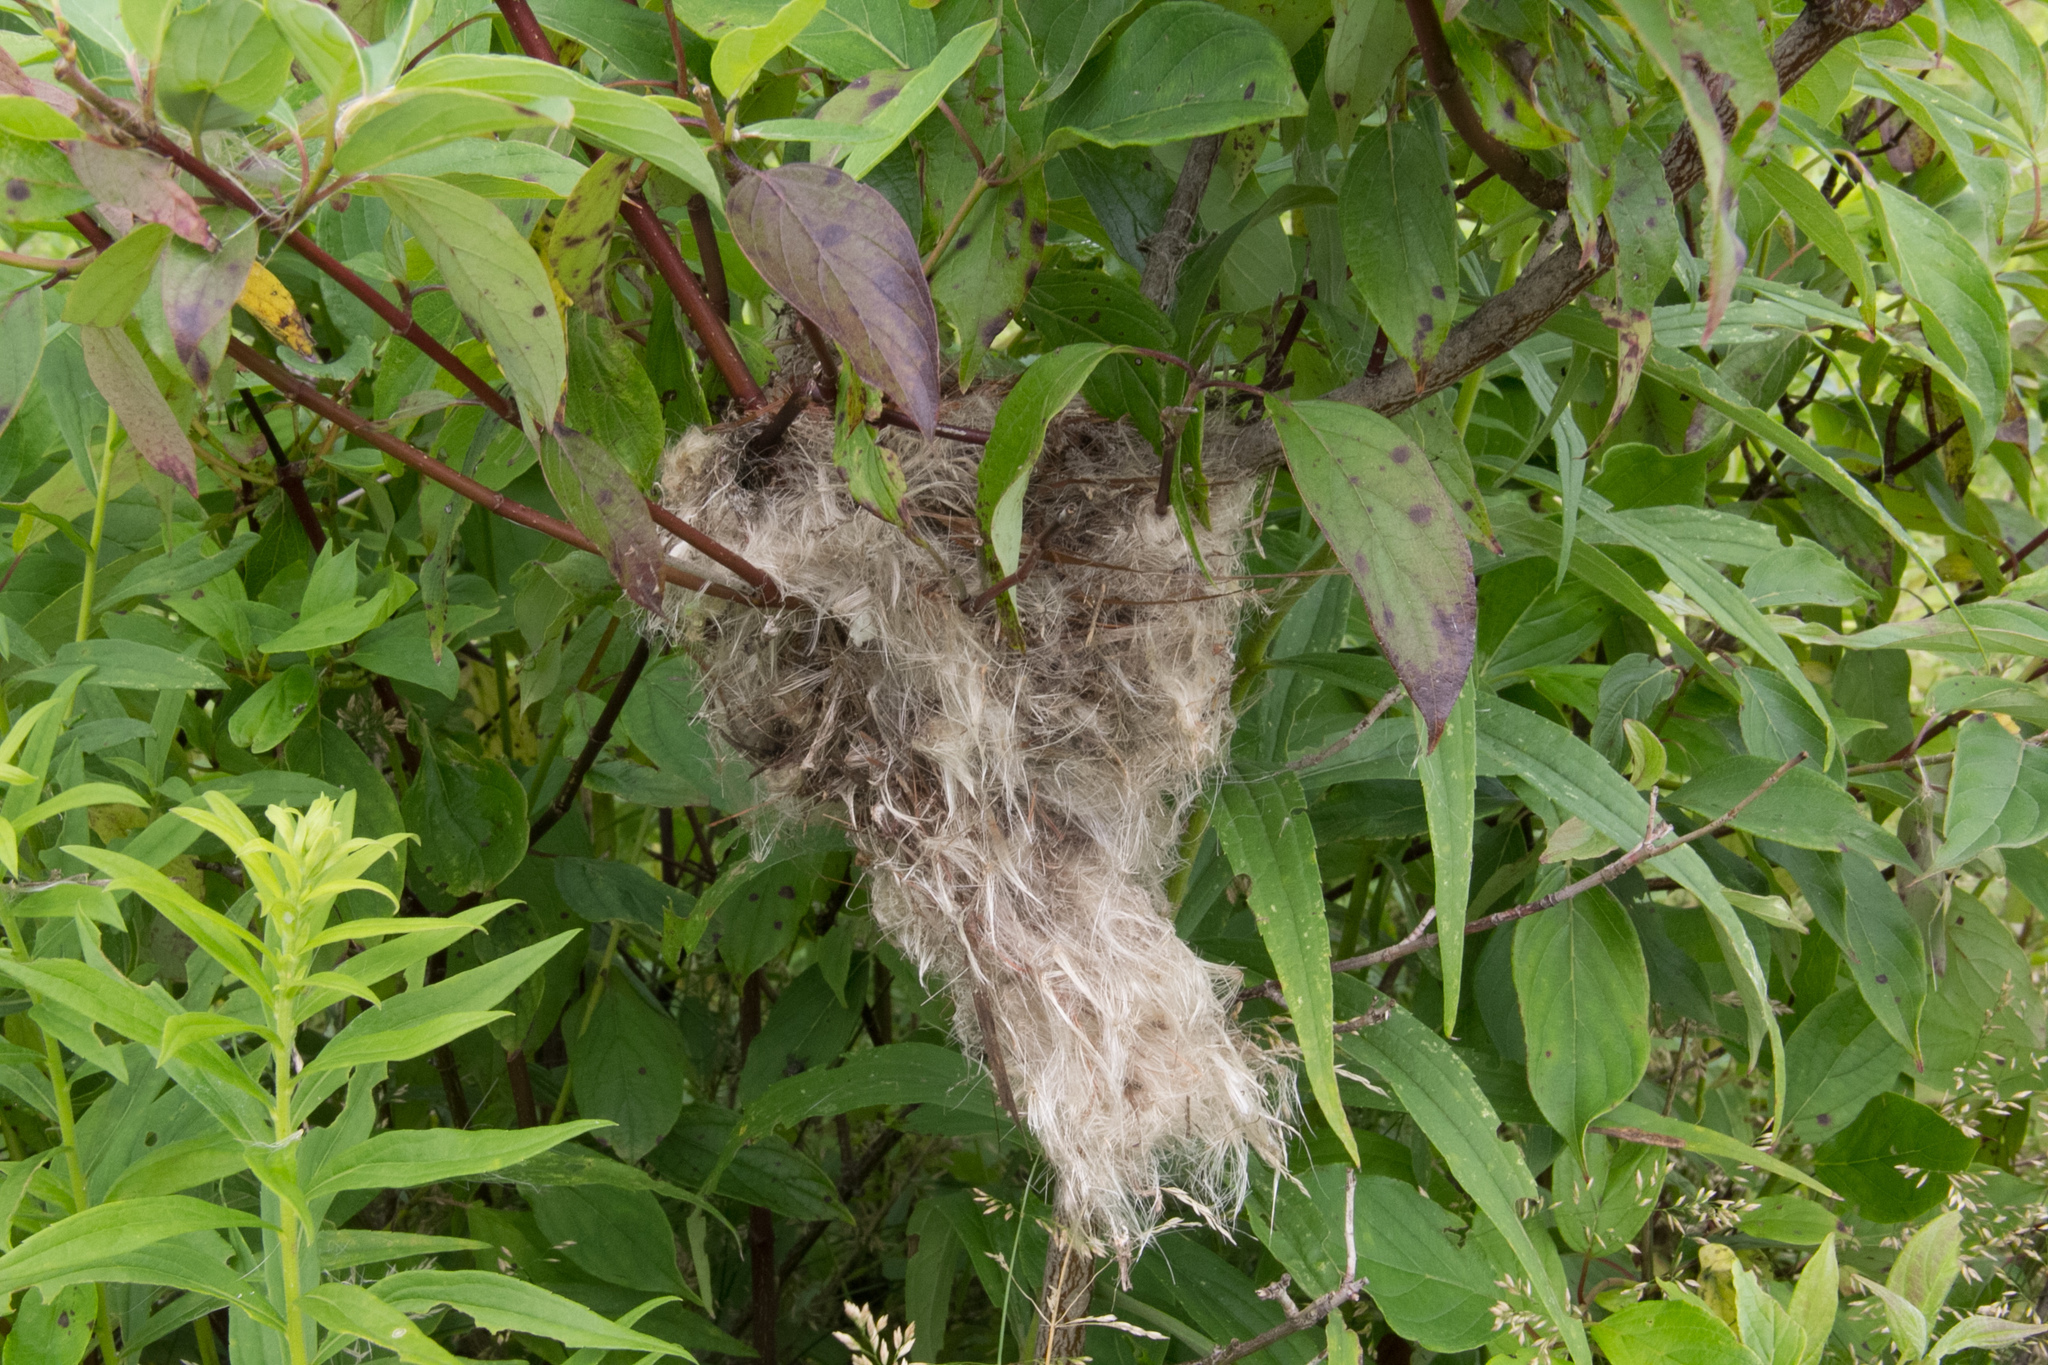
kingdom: Animalia
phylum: Chordata
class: Aves
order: Passeriformes
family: Fringillidae
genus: Spinus
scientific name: Spinus tristis
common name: American goldfinch
